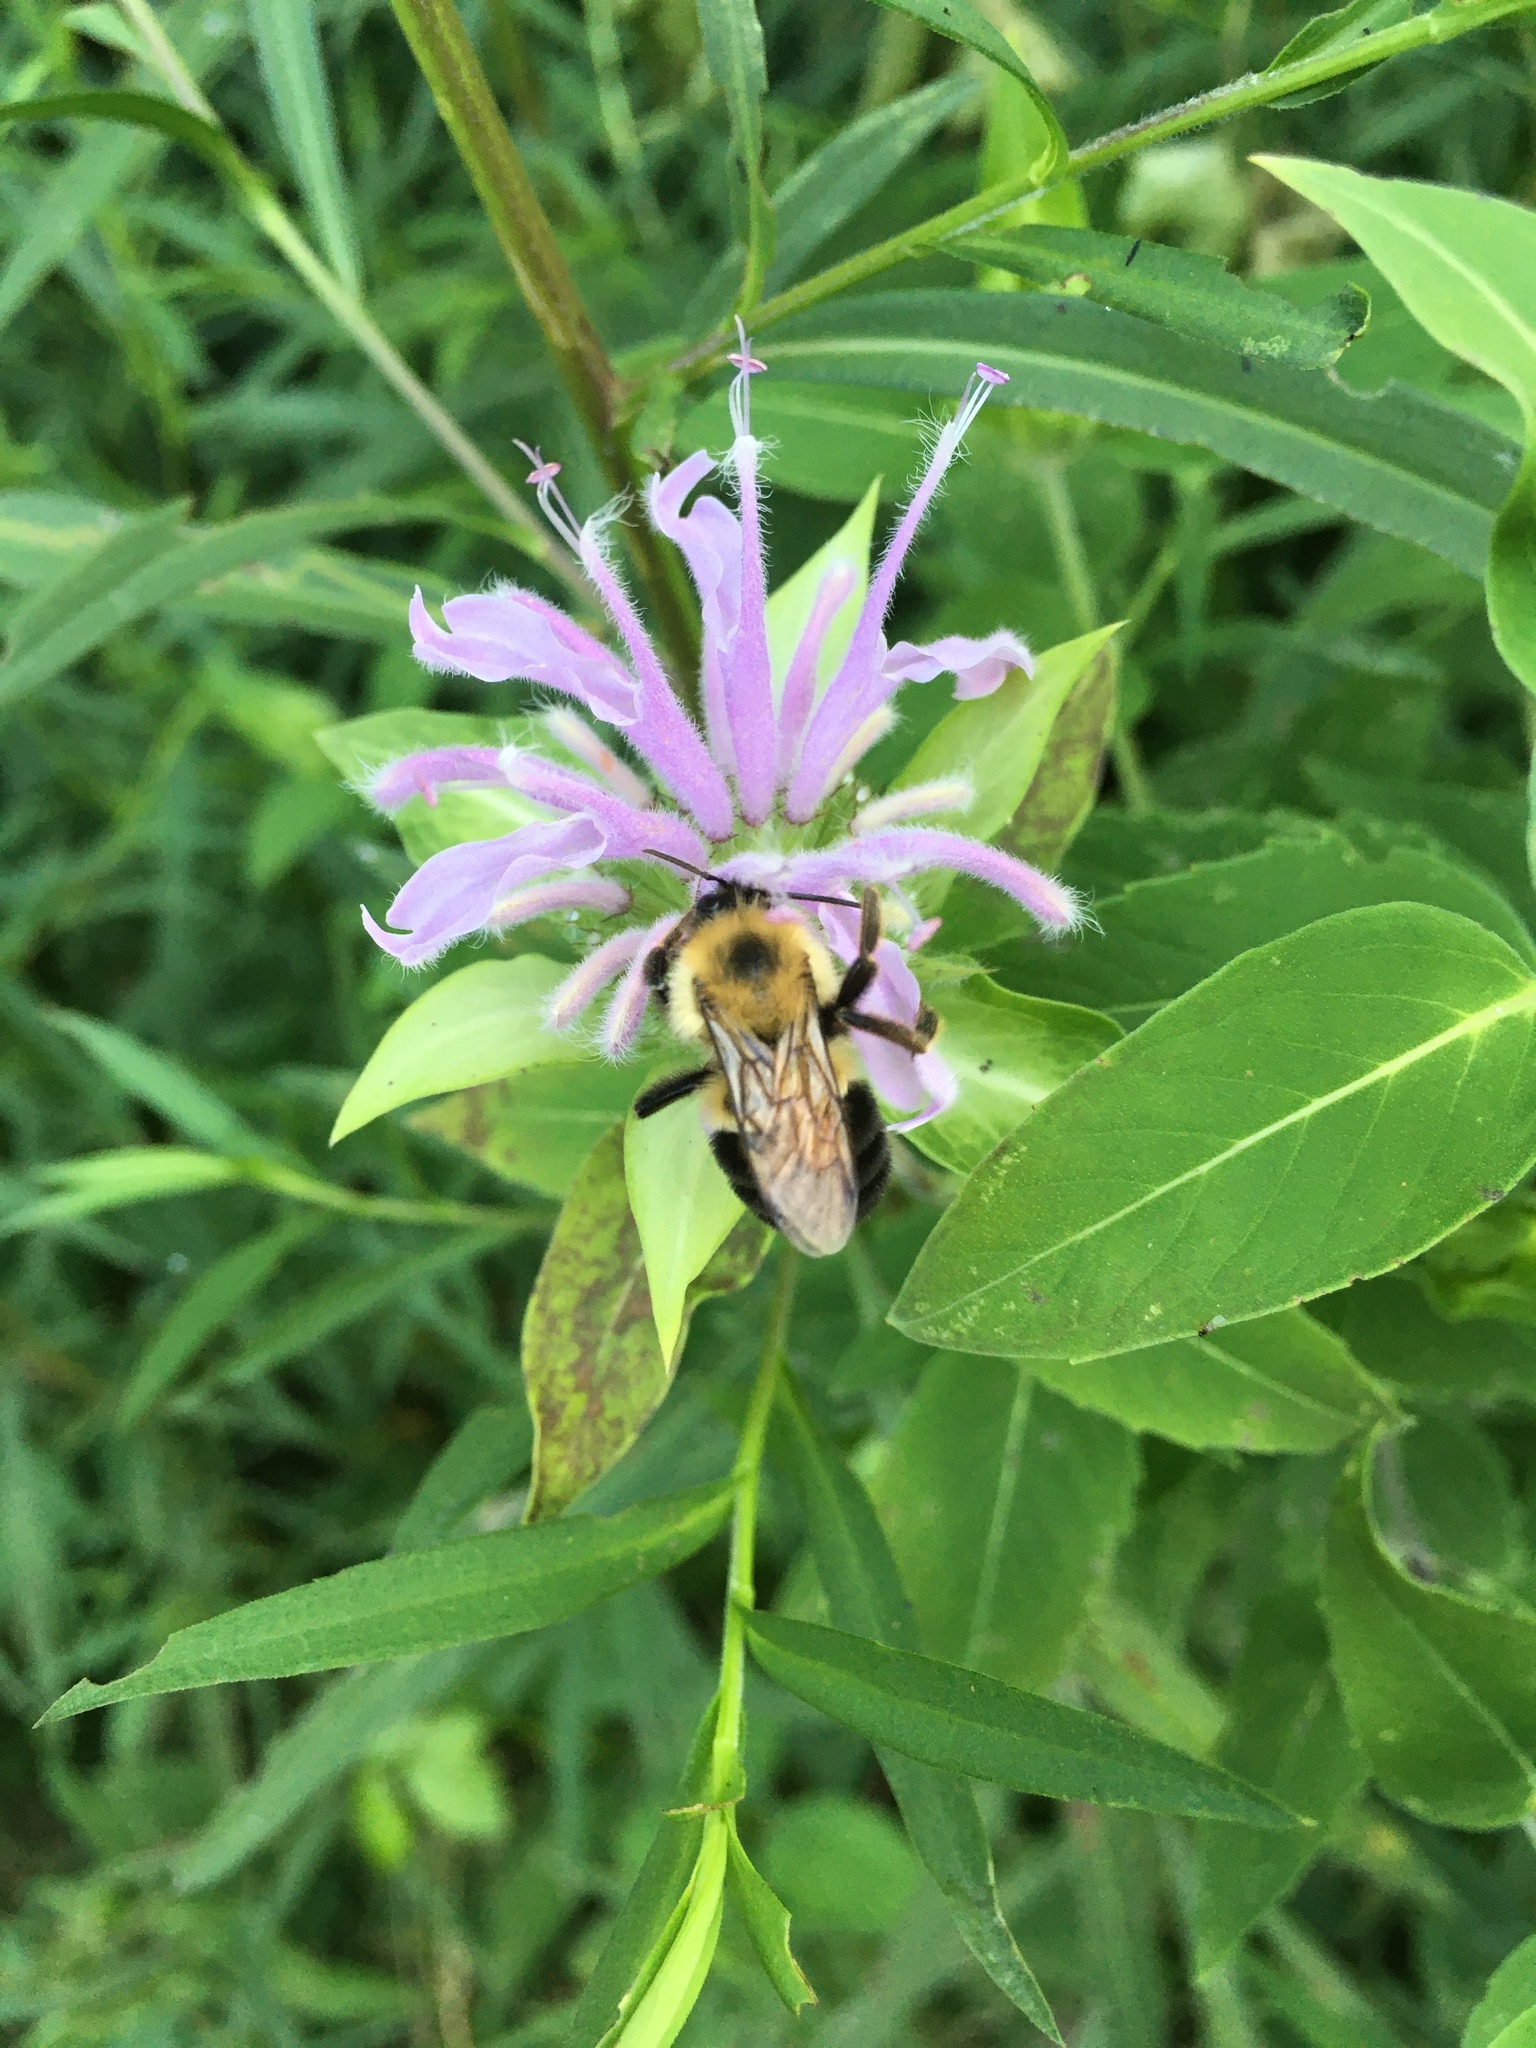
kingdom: Animalia
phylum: Arthropoda
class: Insecta
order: Hymenoptera
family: Apidae
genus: Bombus
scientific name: Bombus bimaculatus
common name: Two-spotted bumble bee
